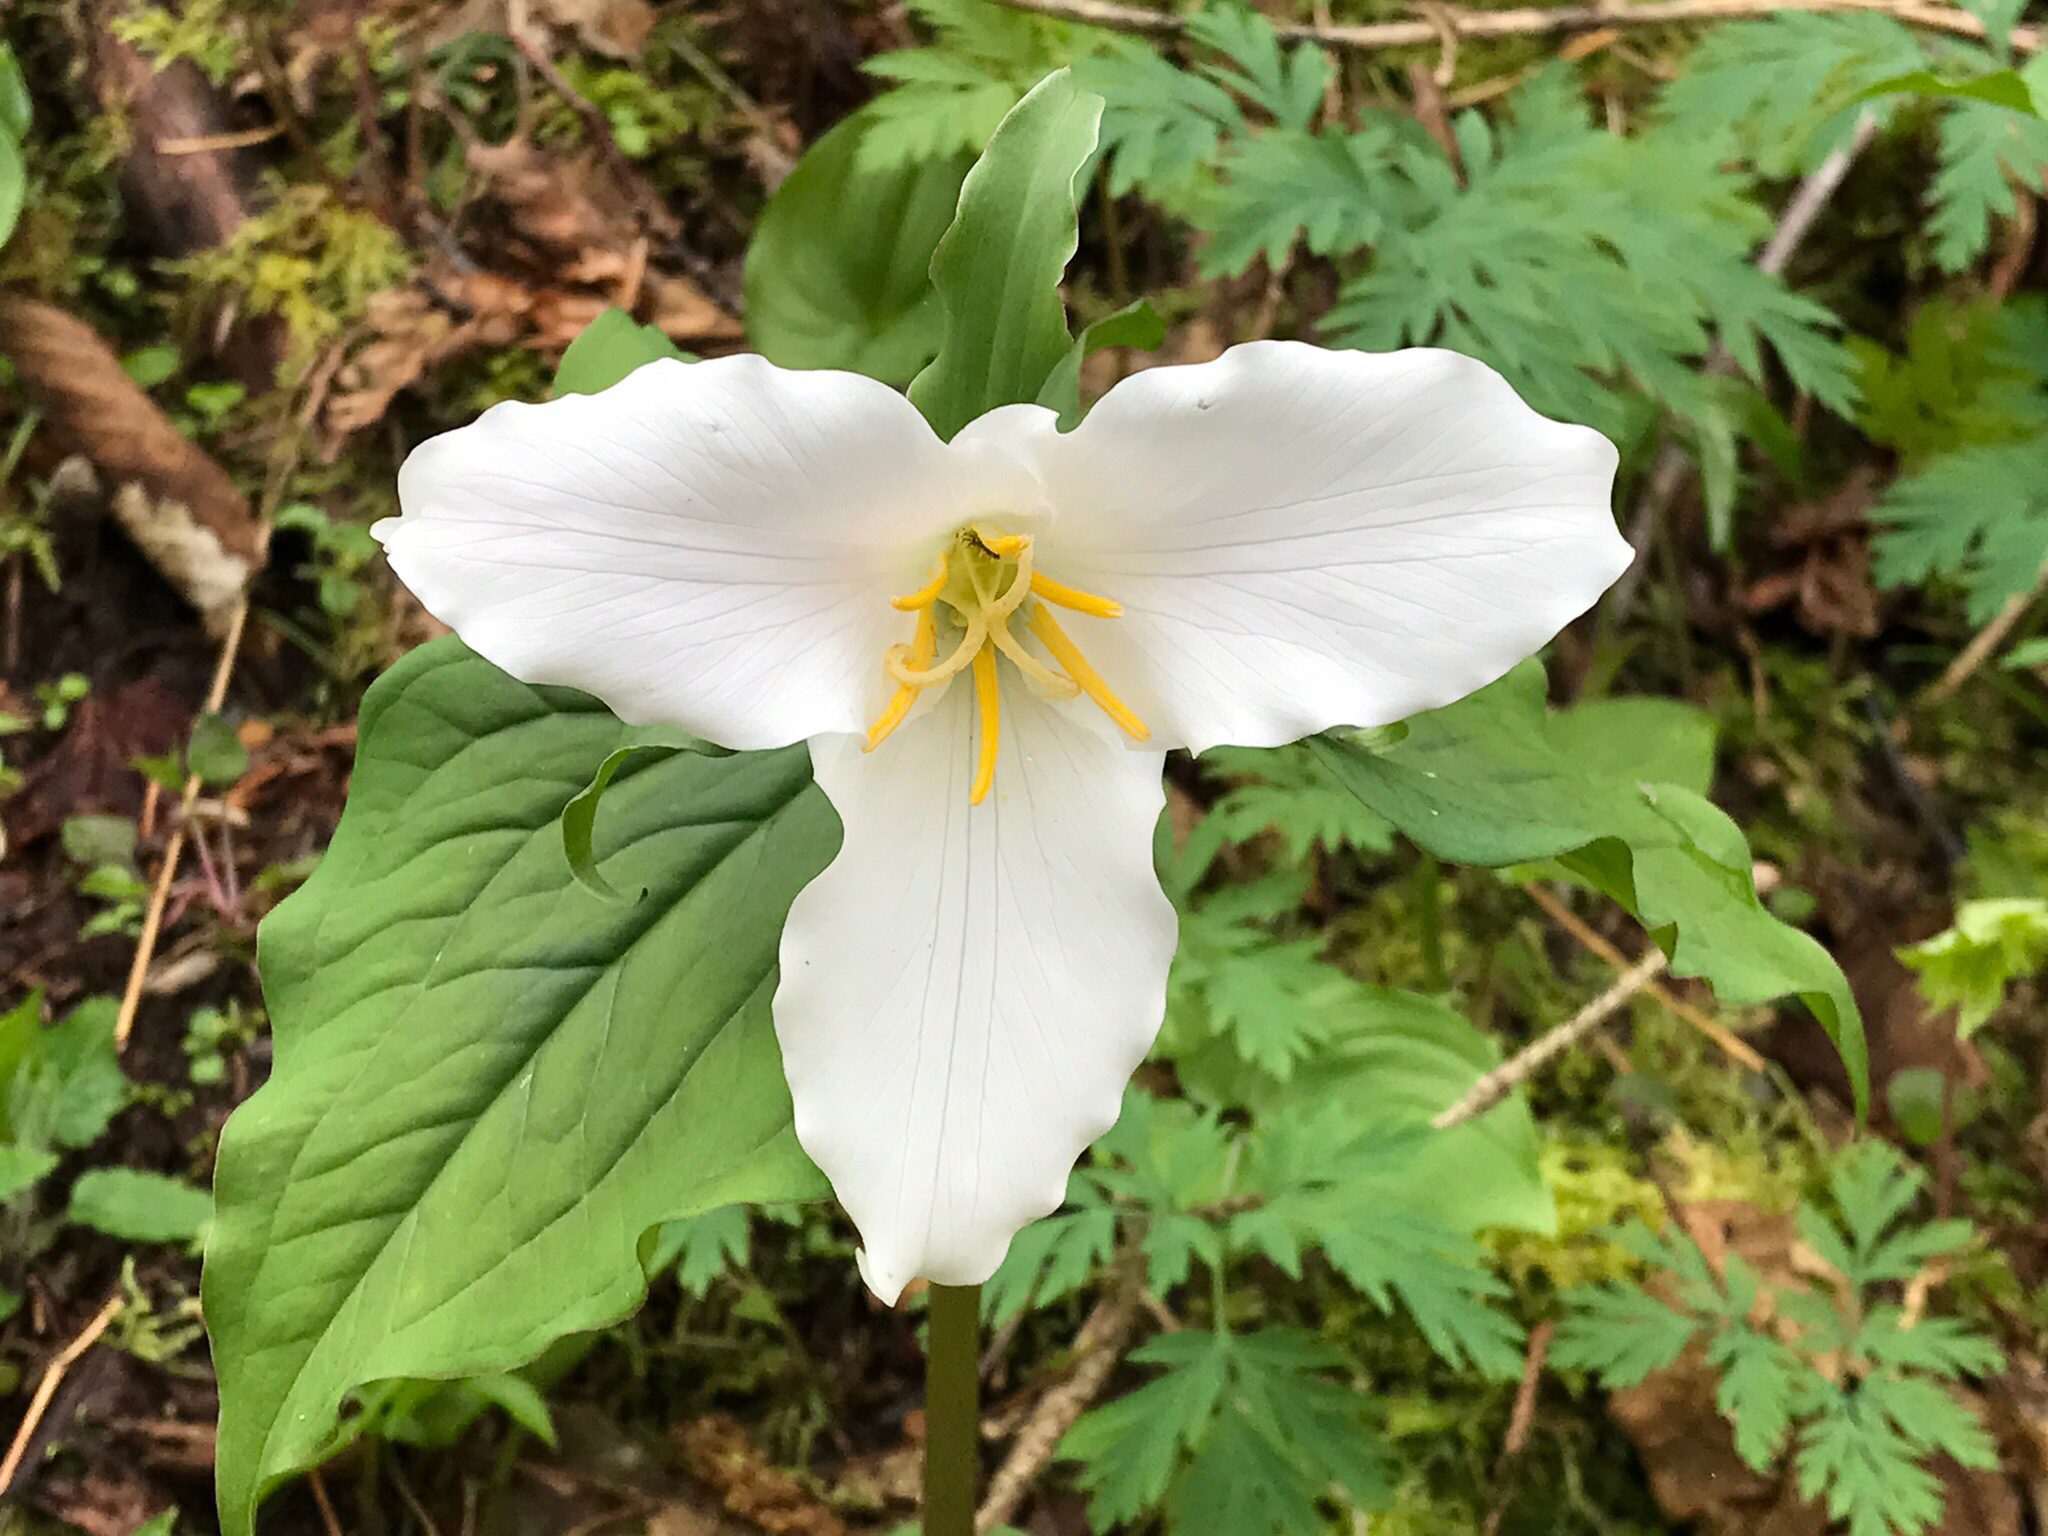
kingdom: Plantae
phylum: Tracheophyta
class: Liliopsida
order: Liliales
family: Melanthiaceae
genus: Trillium
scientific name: Trillium ovatum
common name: Pacific trillium
